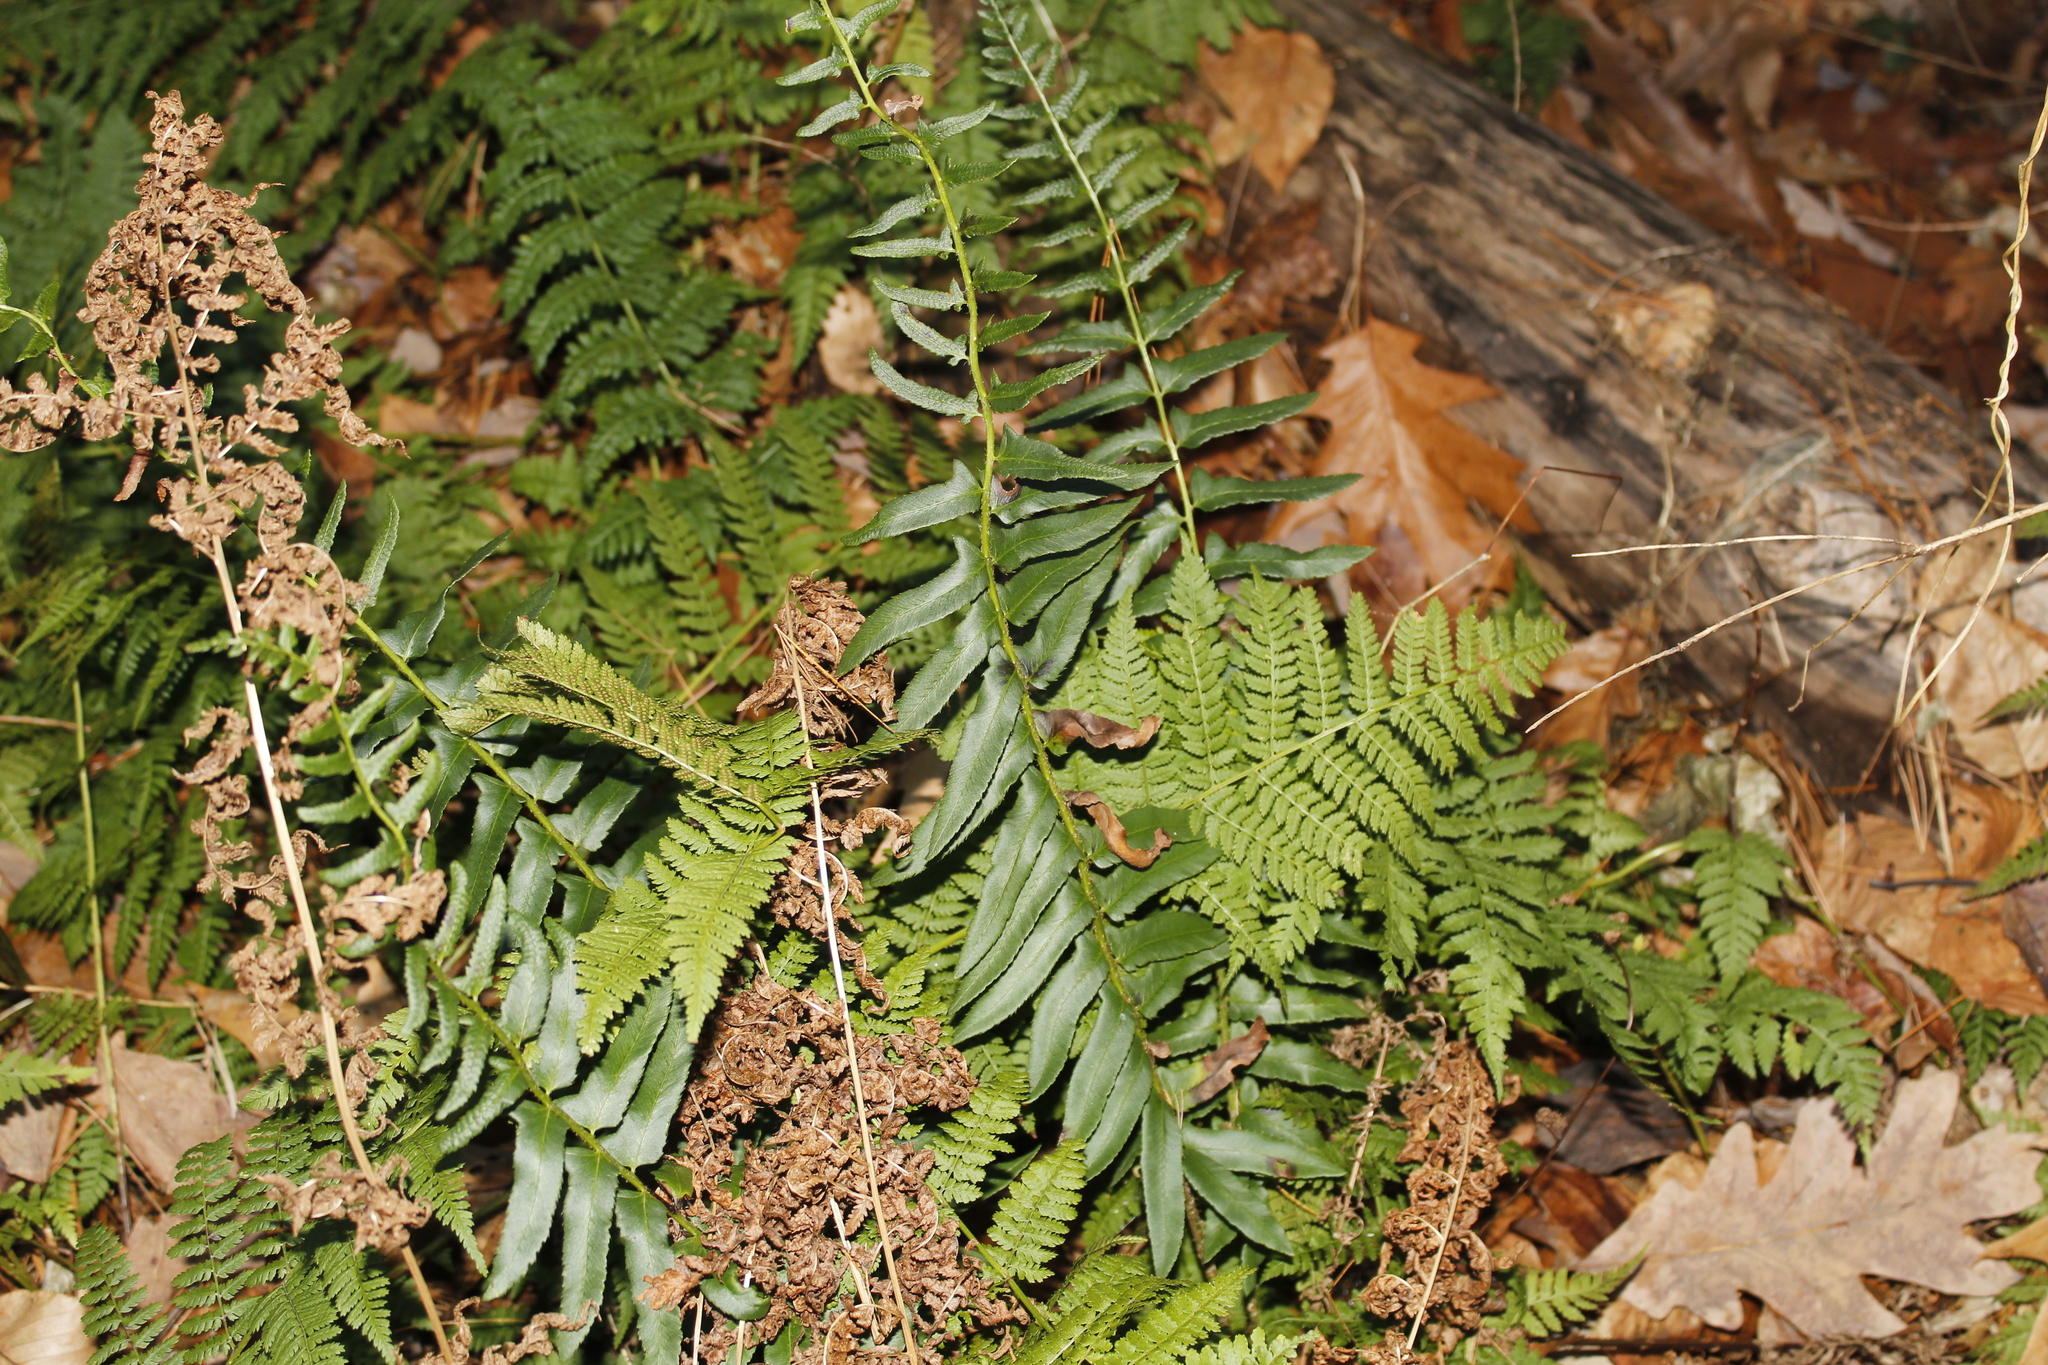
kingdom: Plantae
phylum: Tracheophyta
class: Polypodiopsida
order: Polypodiales
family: Dryopteridaceae
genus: Polystichum
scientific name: Polystichum acrostichoides
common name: Christmas fern
